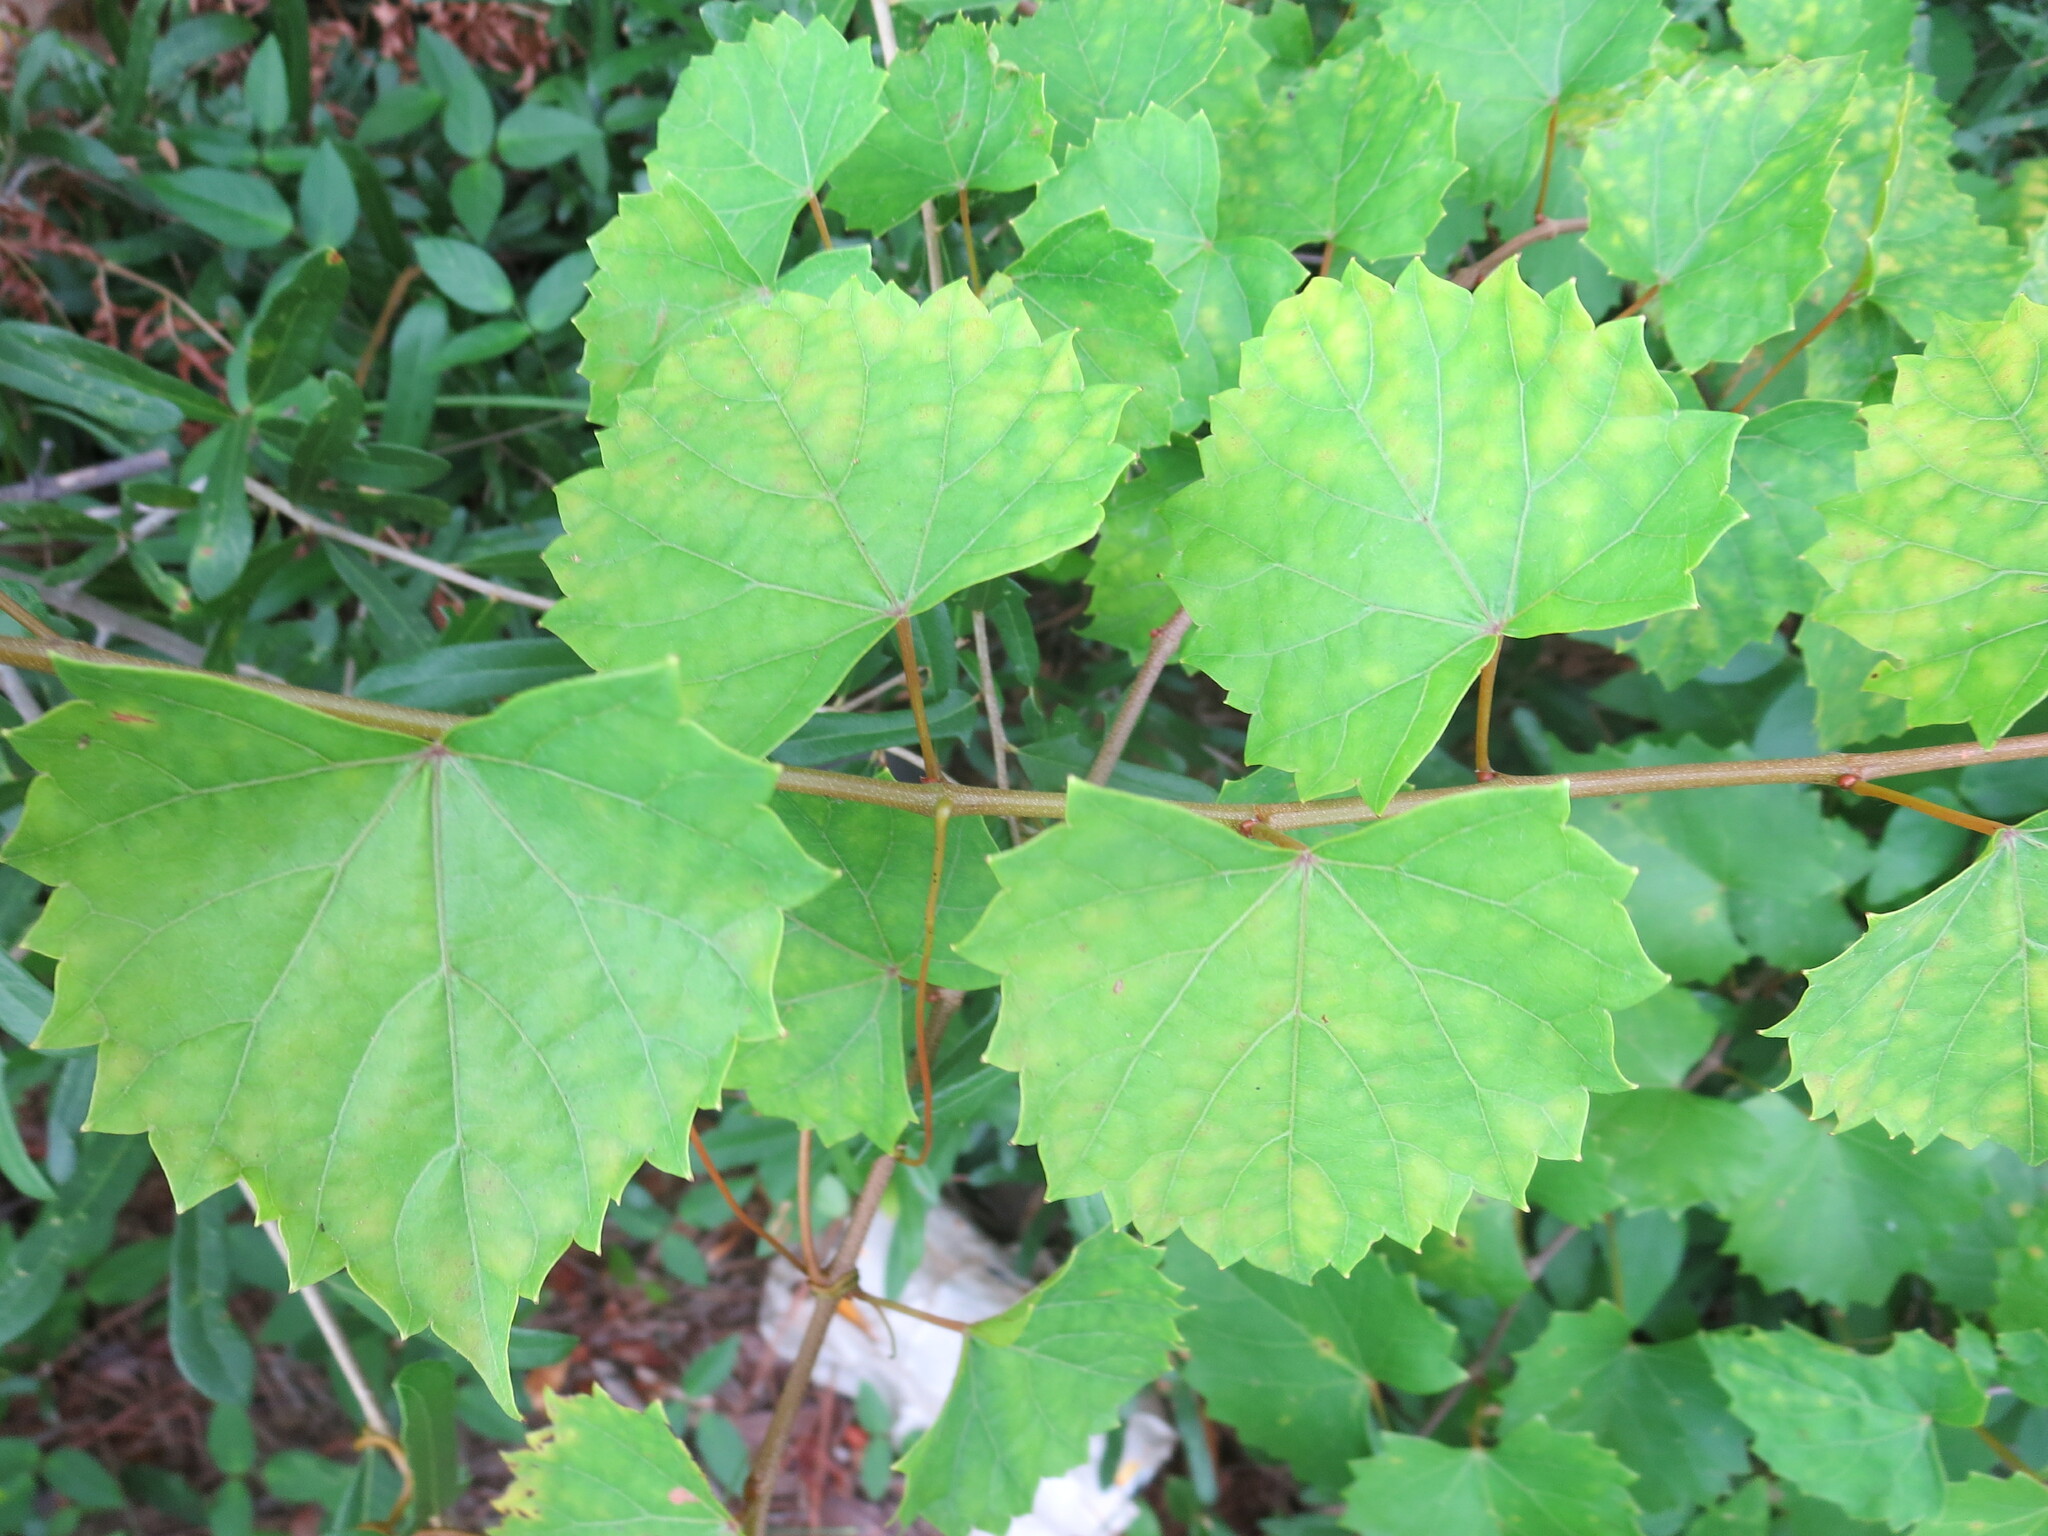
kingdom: Plantae
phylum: Tracheophyta
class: Magnoliopsida
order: Vitales
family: Vitaceae
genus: Vitis
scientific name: Vitis rotundifolia
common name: Muscadine grape
